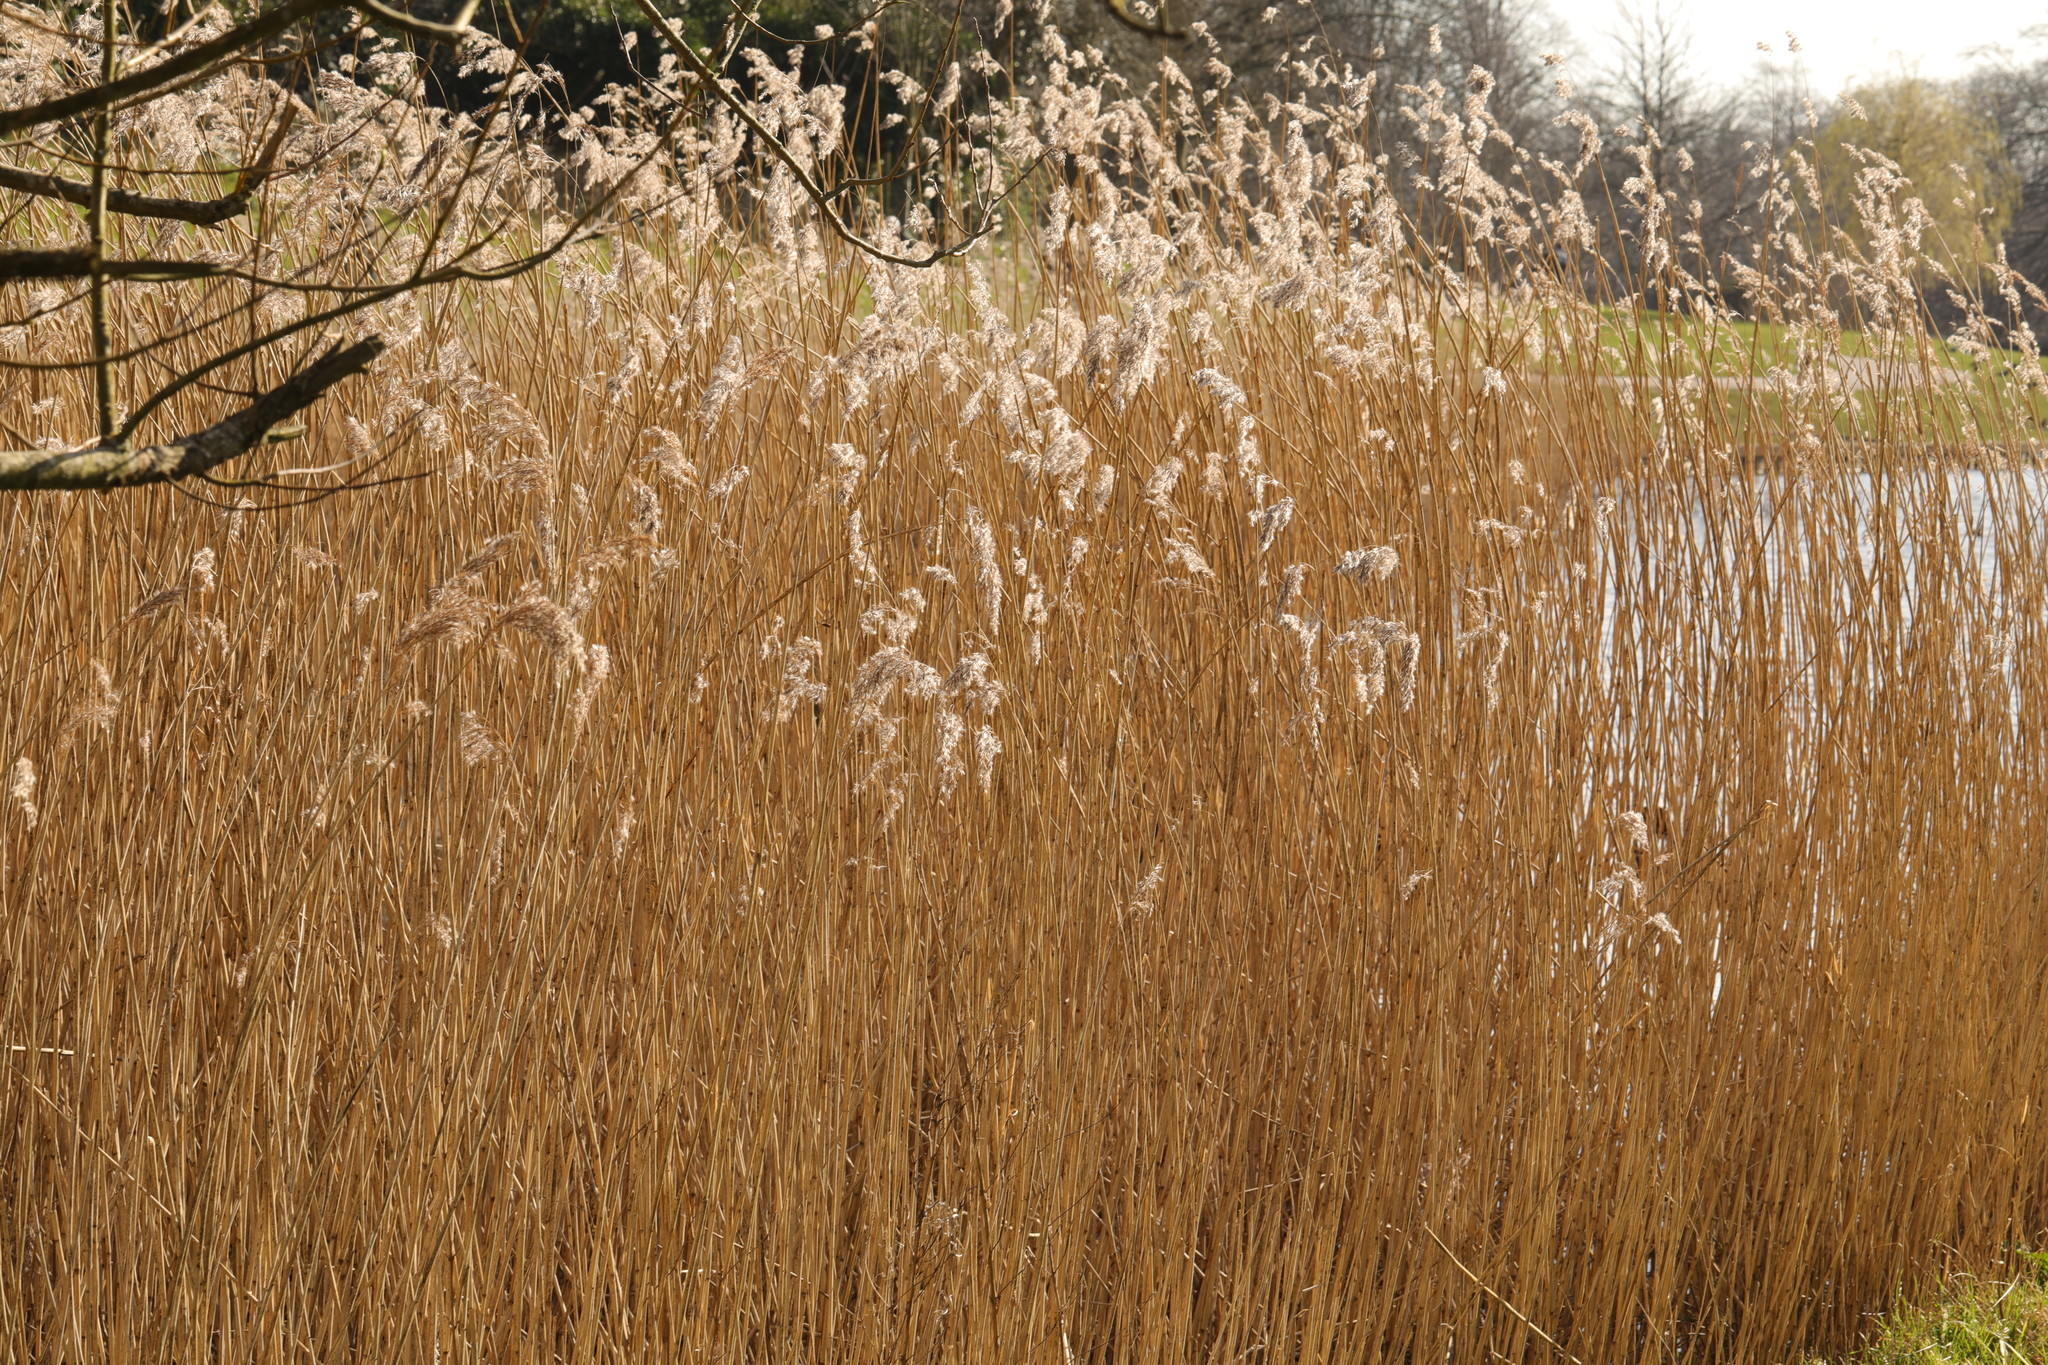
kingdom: Plantae
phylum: Tracheophyta
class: Liliopsida
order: Poales
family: Poaceae
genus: Phragmites
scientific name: Phragmites australis
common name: Common reed
